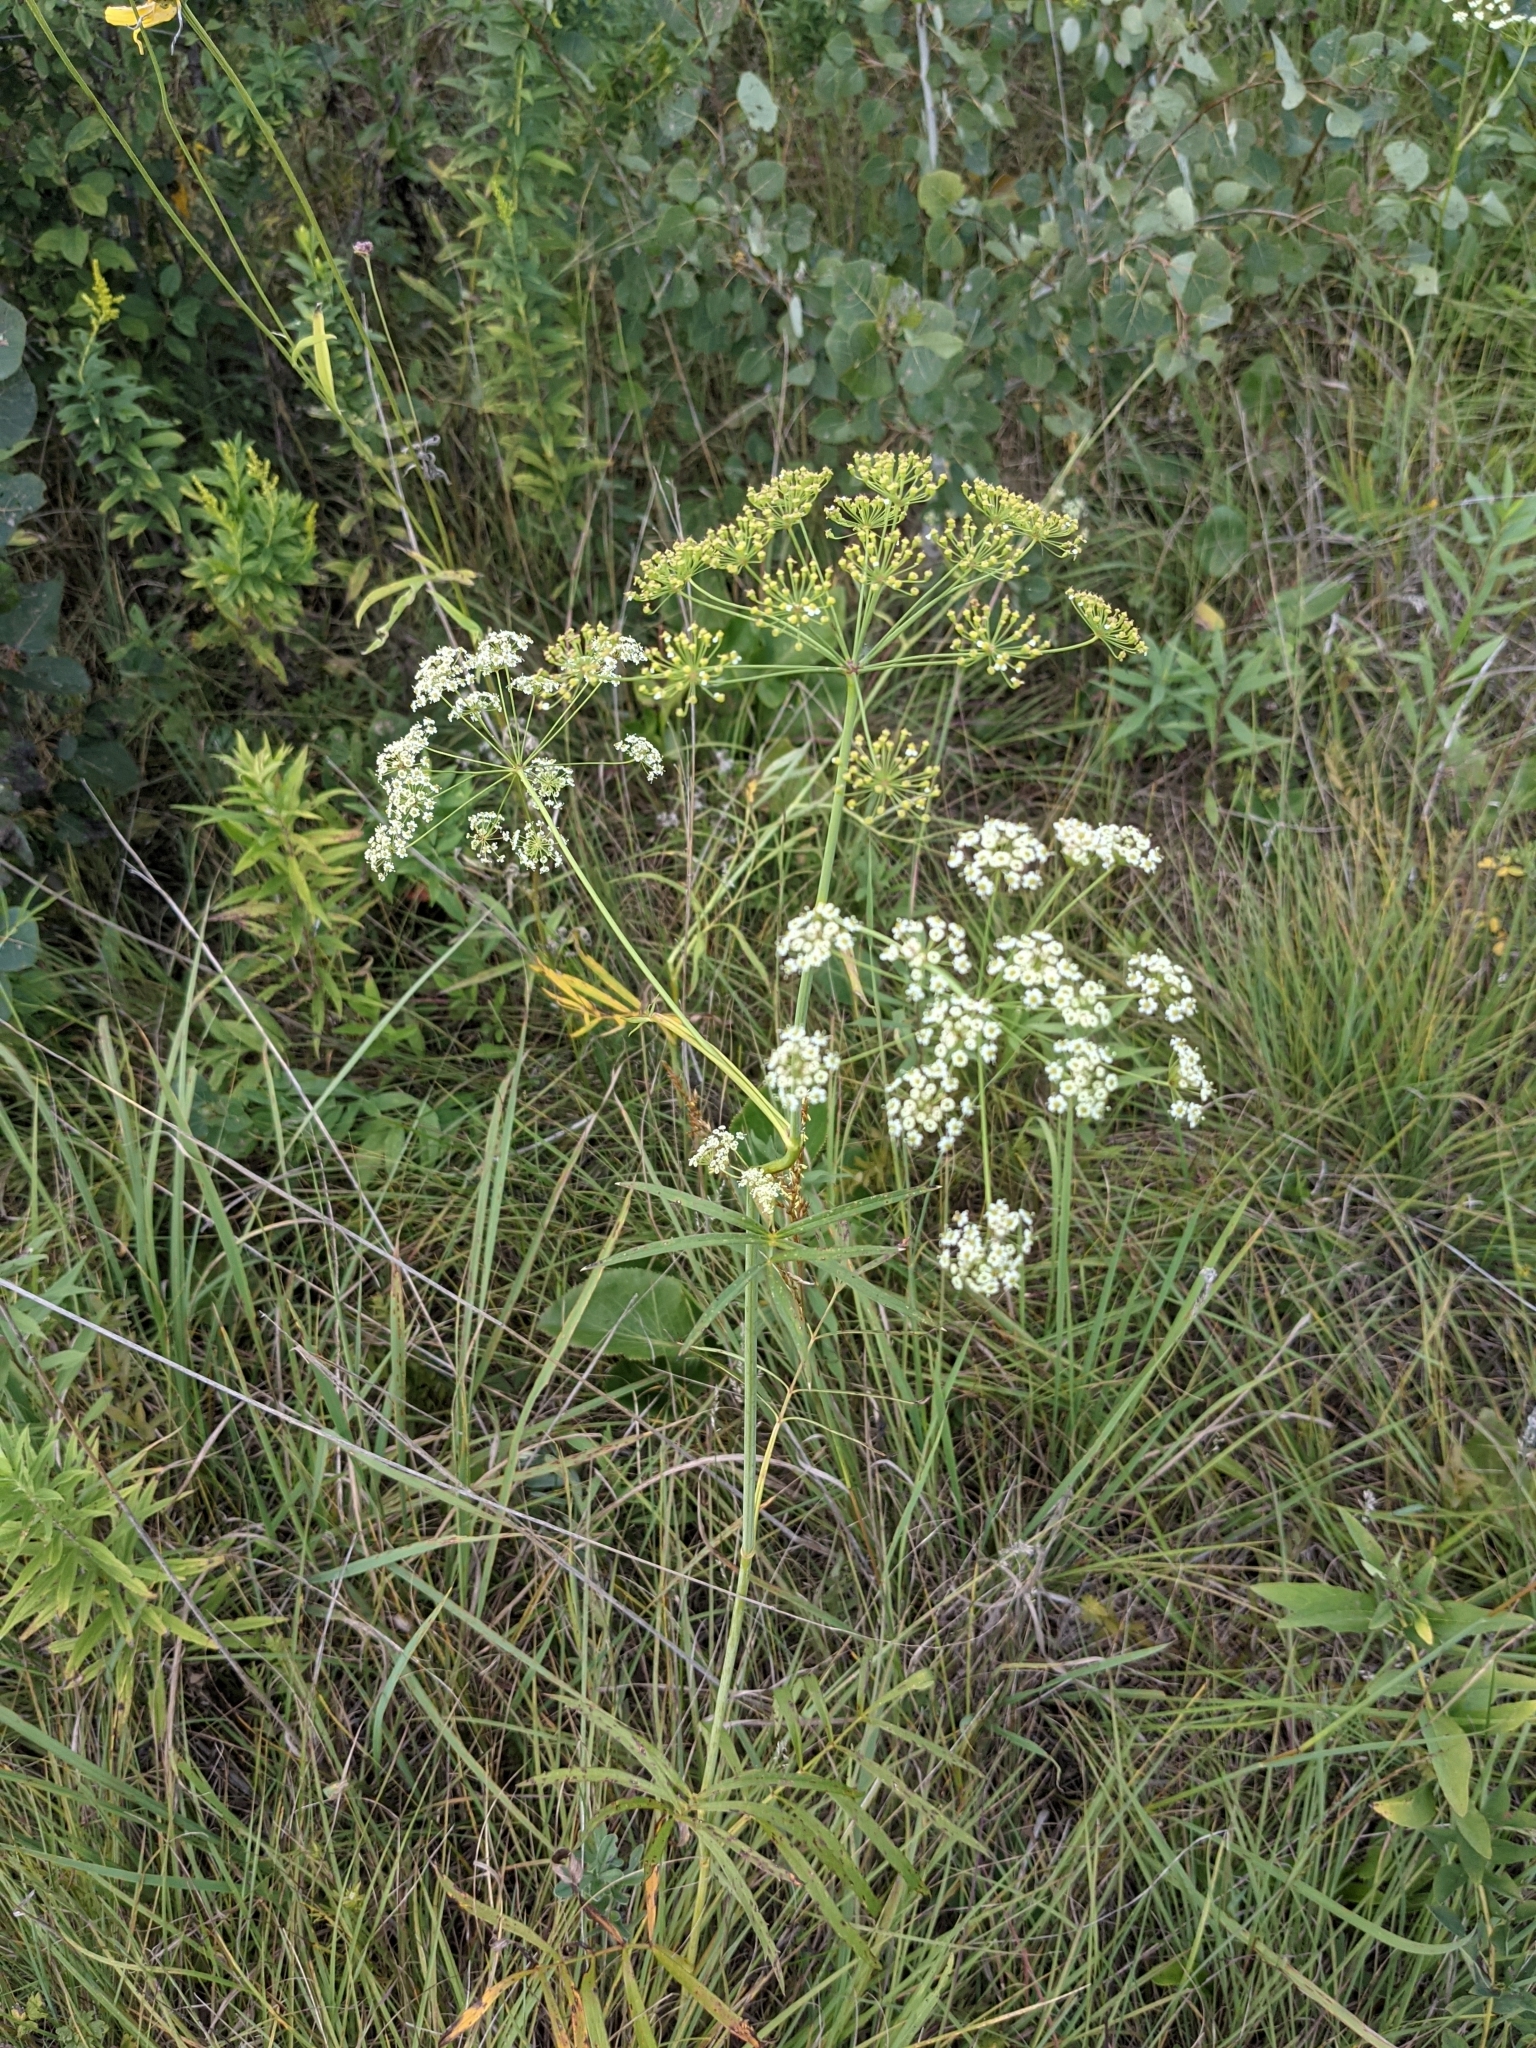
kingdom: Plantae
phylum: Tracheophyta
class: Magnoliopsida
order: Apiales
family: Apiaceae
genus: Oxypolis
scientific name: Oxypolis rigidior
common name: Cowbane
